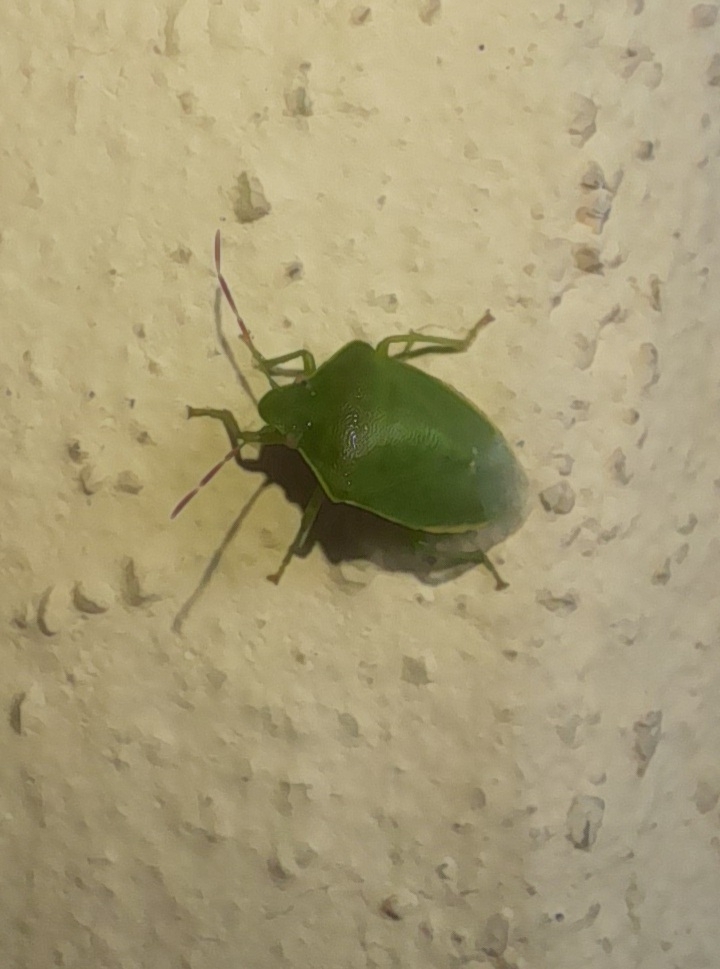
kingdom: Animalia
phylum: Arthropoda
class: Insecta
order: Hemiptera
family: Pentatomidae
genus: Acrosternum
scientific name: Acrosternum heegeri
